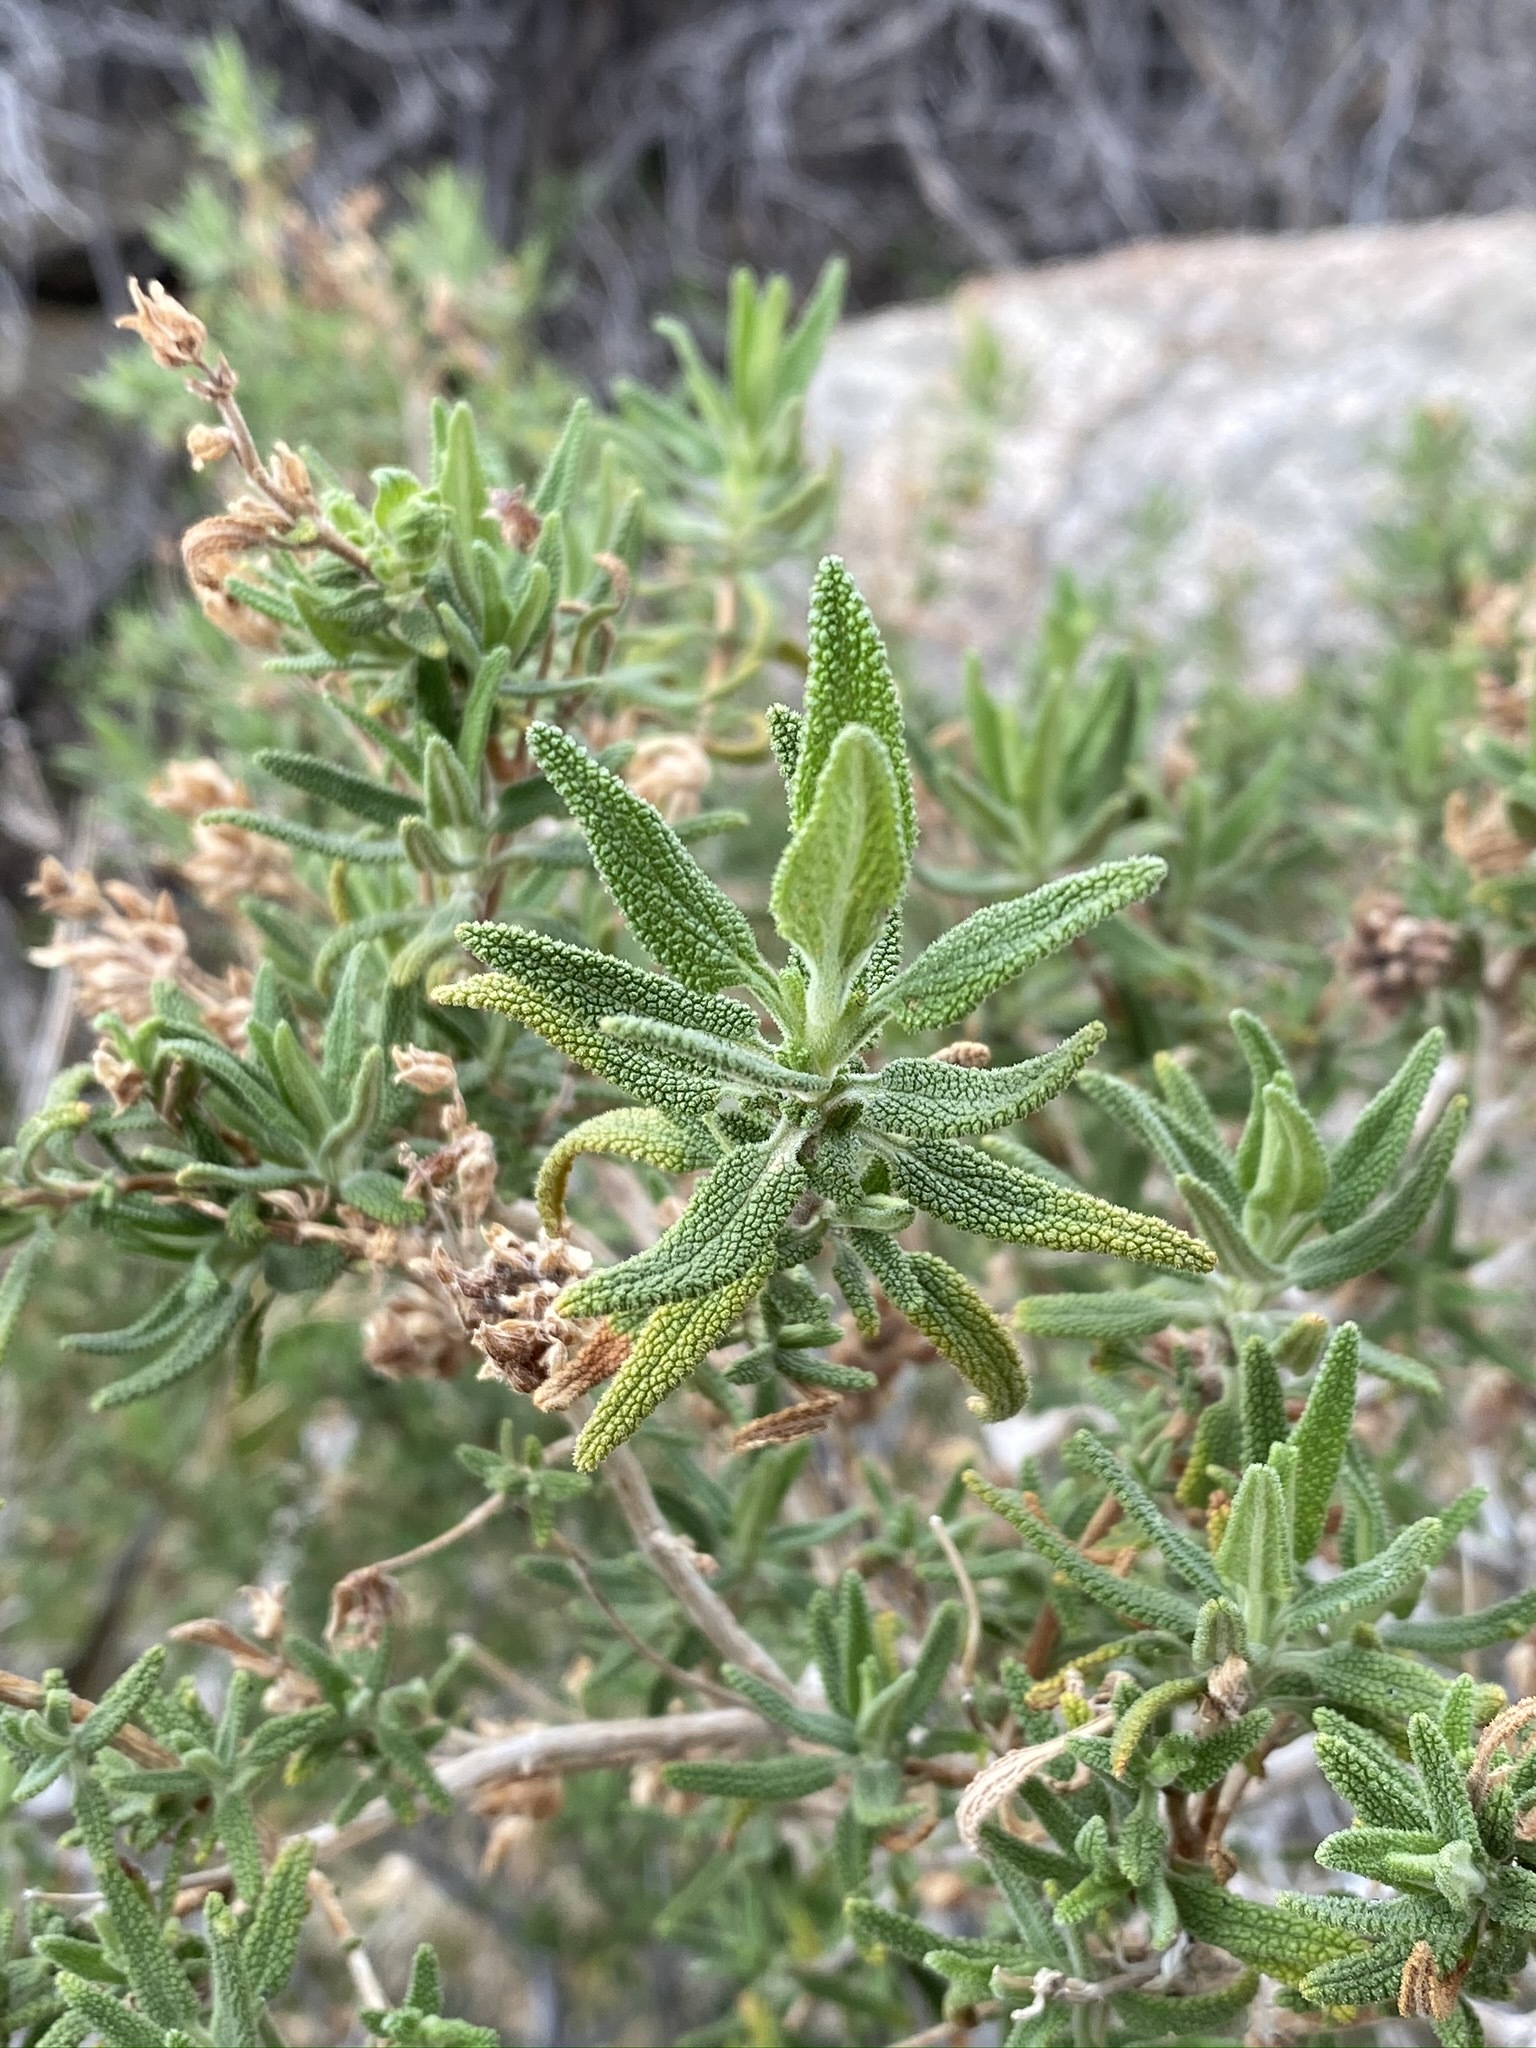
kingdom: Plantae
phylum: Tracheophyta
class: Magnoliopsida
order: Lamiales
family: Lamiaceae
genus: Salvia
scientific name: Salvia eremostachya
